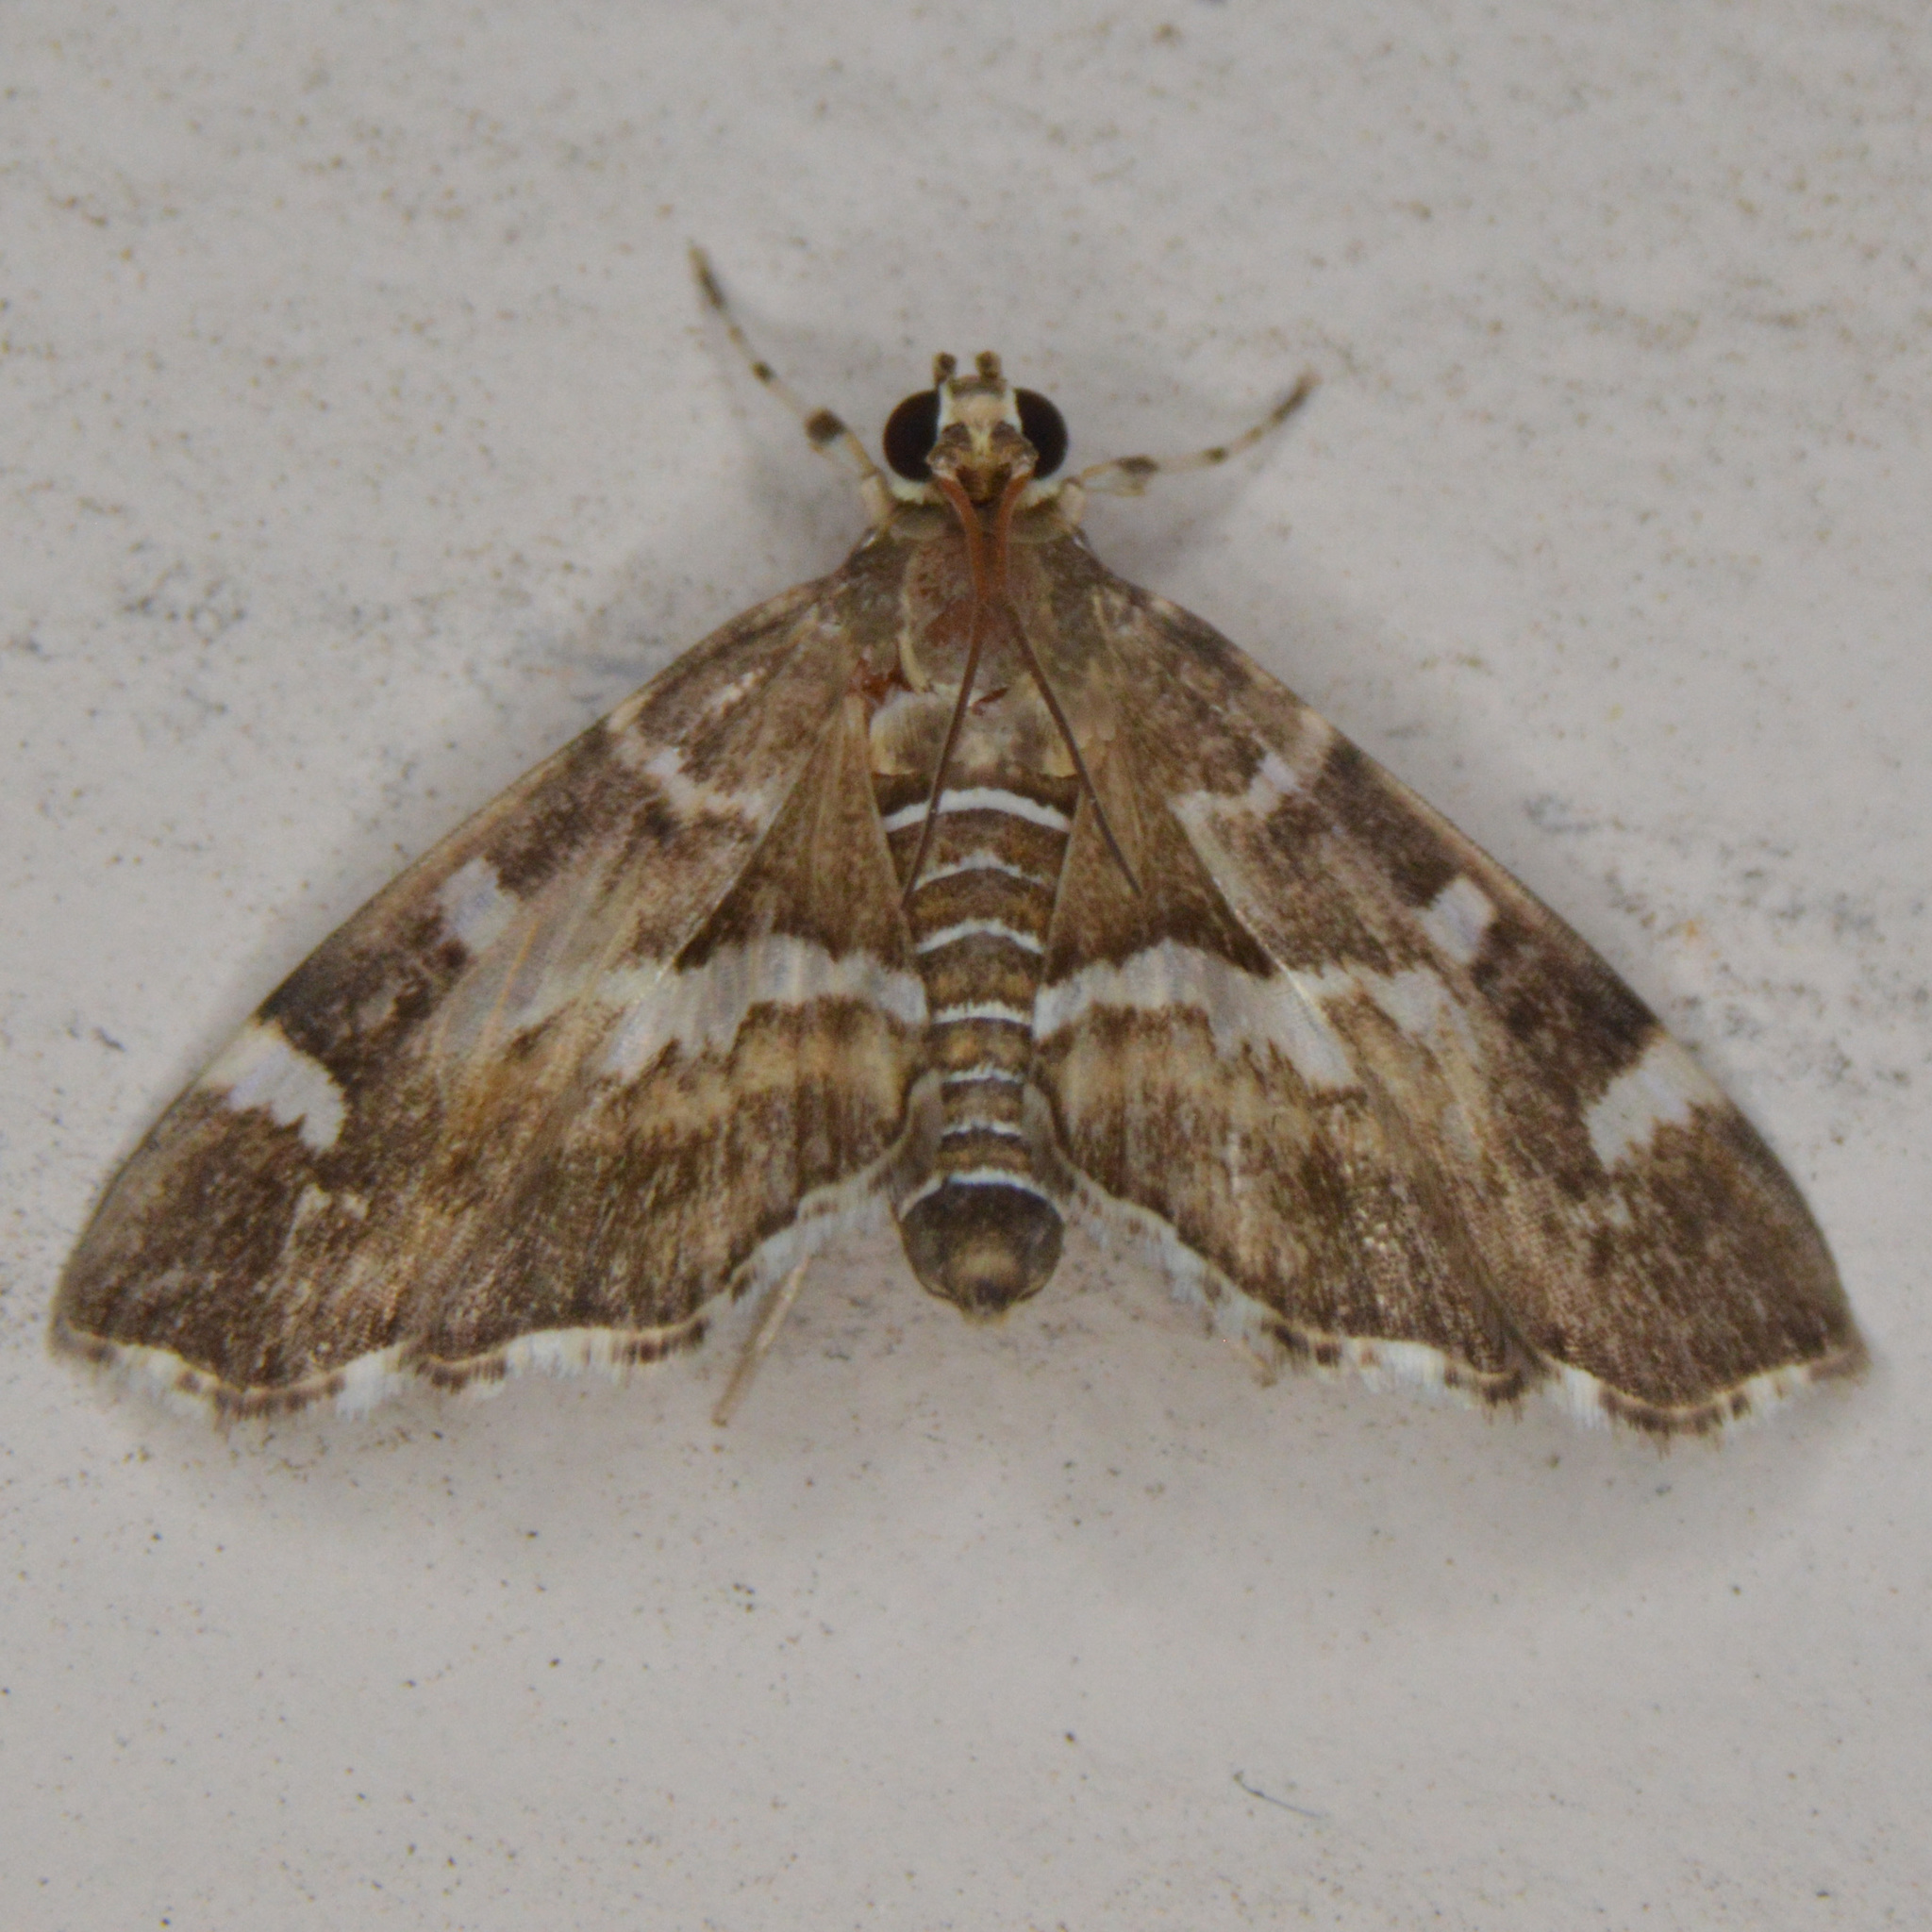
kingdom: Animalia
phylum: Arthropoda
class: Insecta
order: Lepidoptera
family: Crambidae
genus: Hymenia
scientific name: Hymenia perspectalis
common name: Spotted beet webworm
